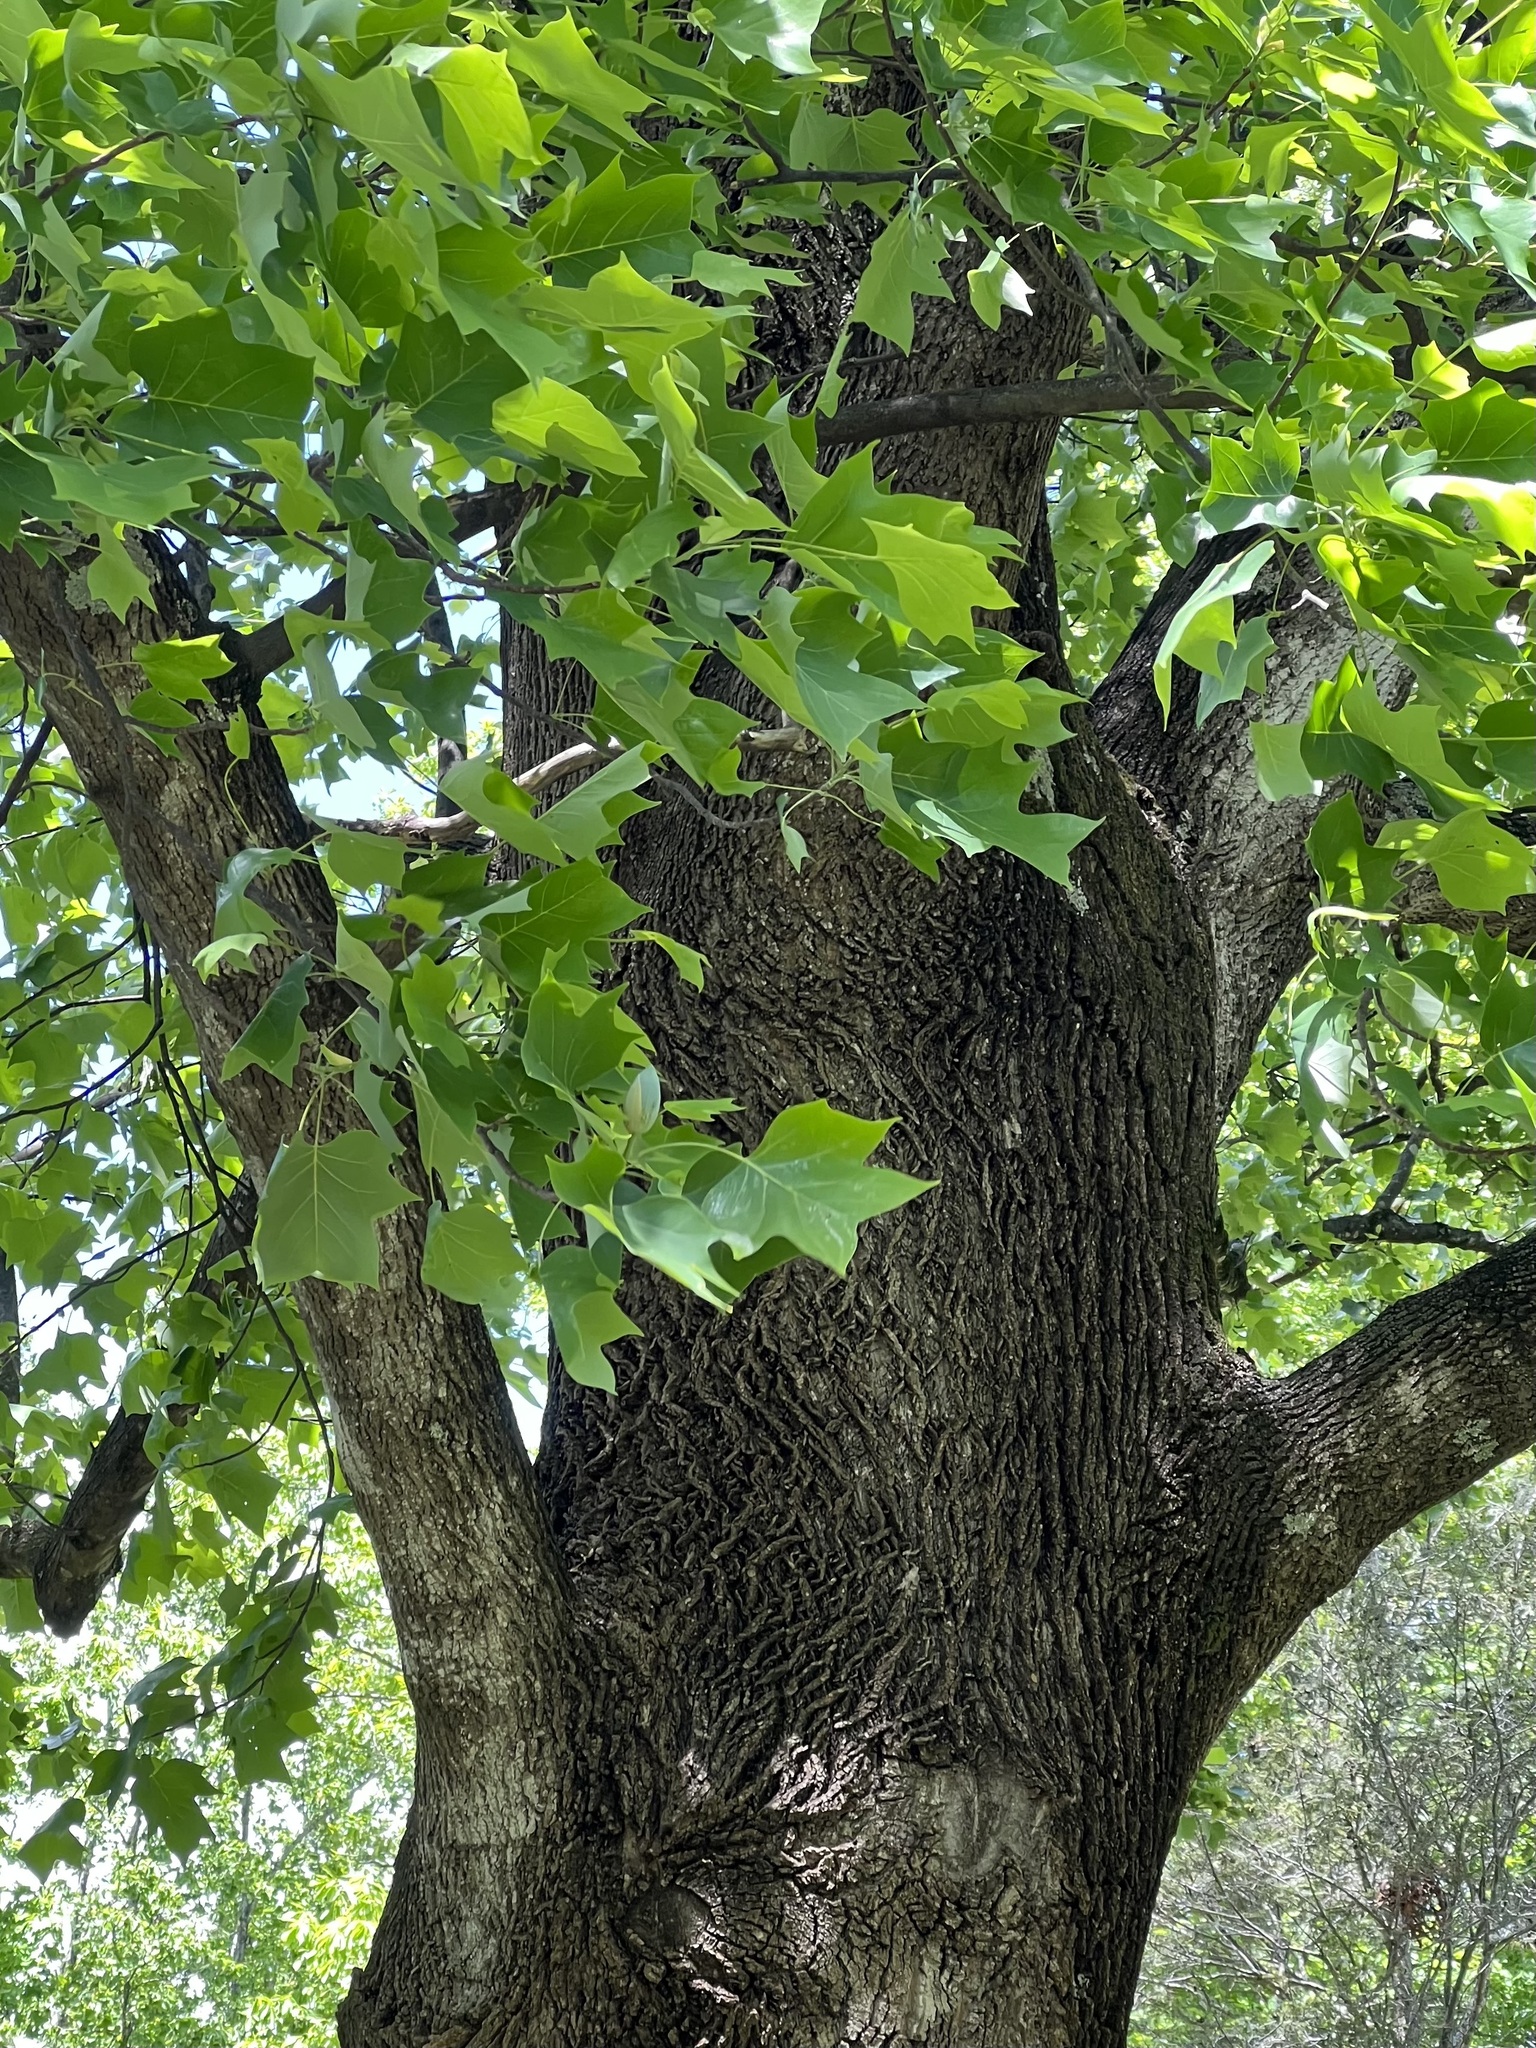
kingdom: Plantae
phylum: Tracheophyta
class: Magnoliopsida
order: Magnoliales
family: Magnoliaceae
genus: Liriodendron
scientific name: Liriodendron tulipifera
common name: Tulip tree
